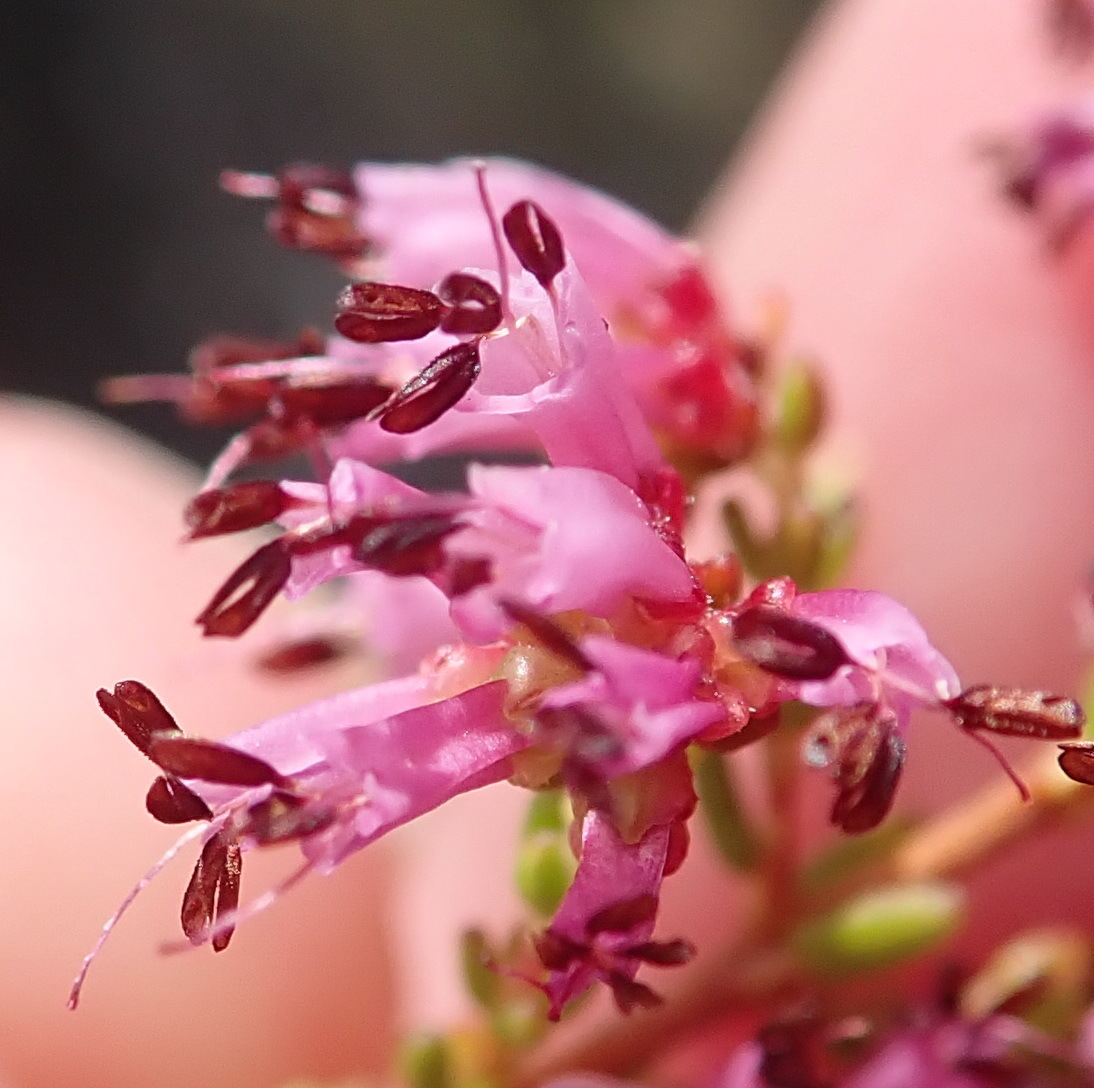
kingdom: Plantae
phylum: Tracheophyta
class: Magnoliopsida
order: Ericales
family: Ericaceae
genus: Erica
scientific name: Erica dispar
